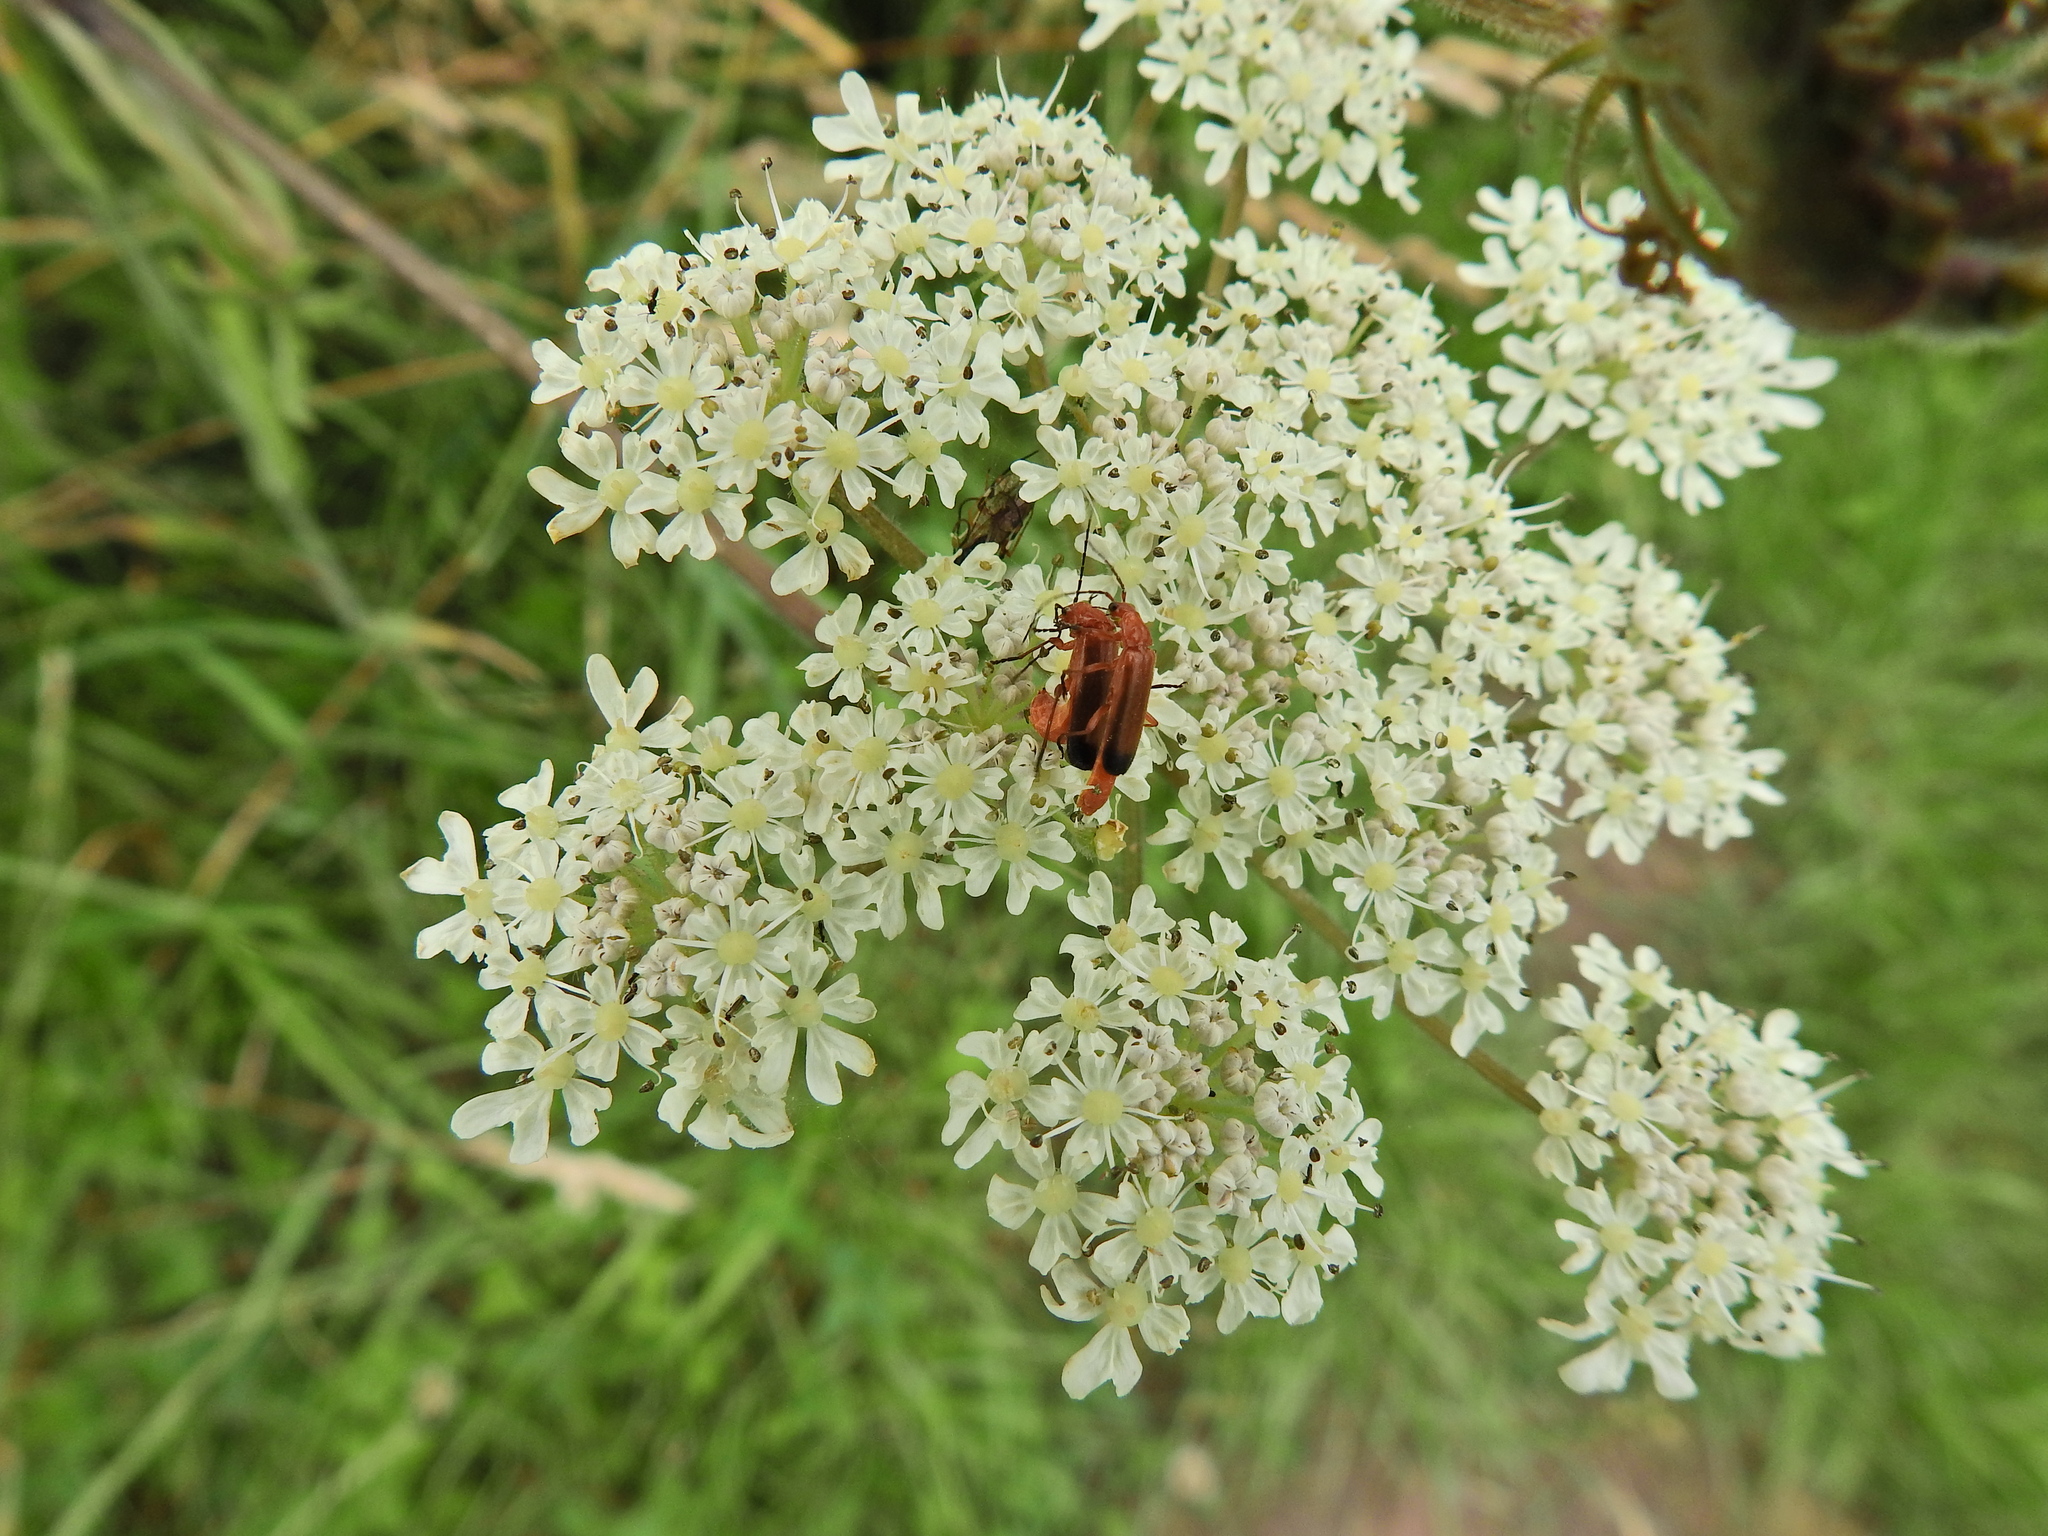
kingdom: Animalia
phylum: Arthropoda
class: Insecta
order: Coleoptera
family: Cantharidae
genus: Rhagonycha
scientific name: Rhagonycha fulva
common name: Common red soldier beetle
